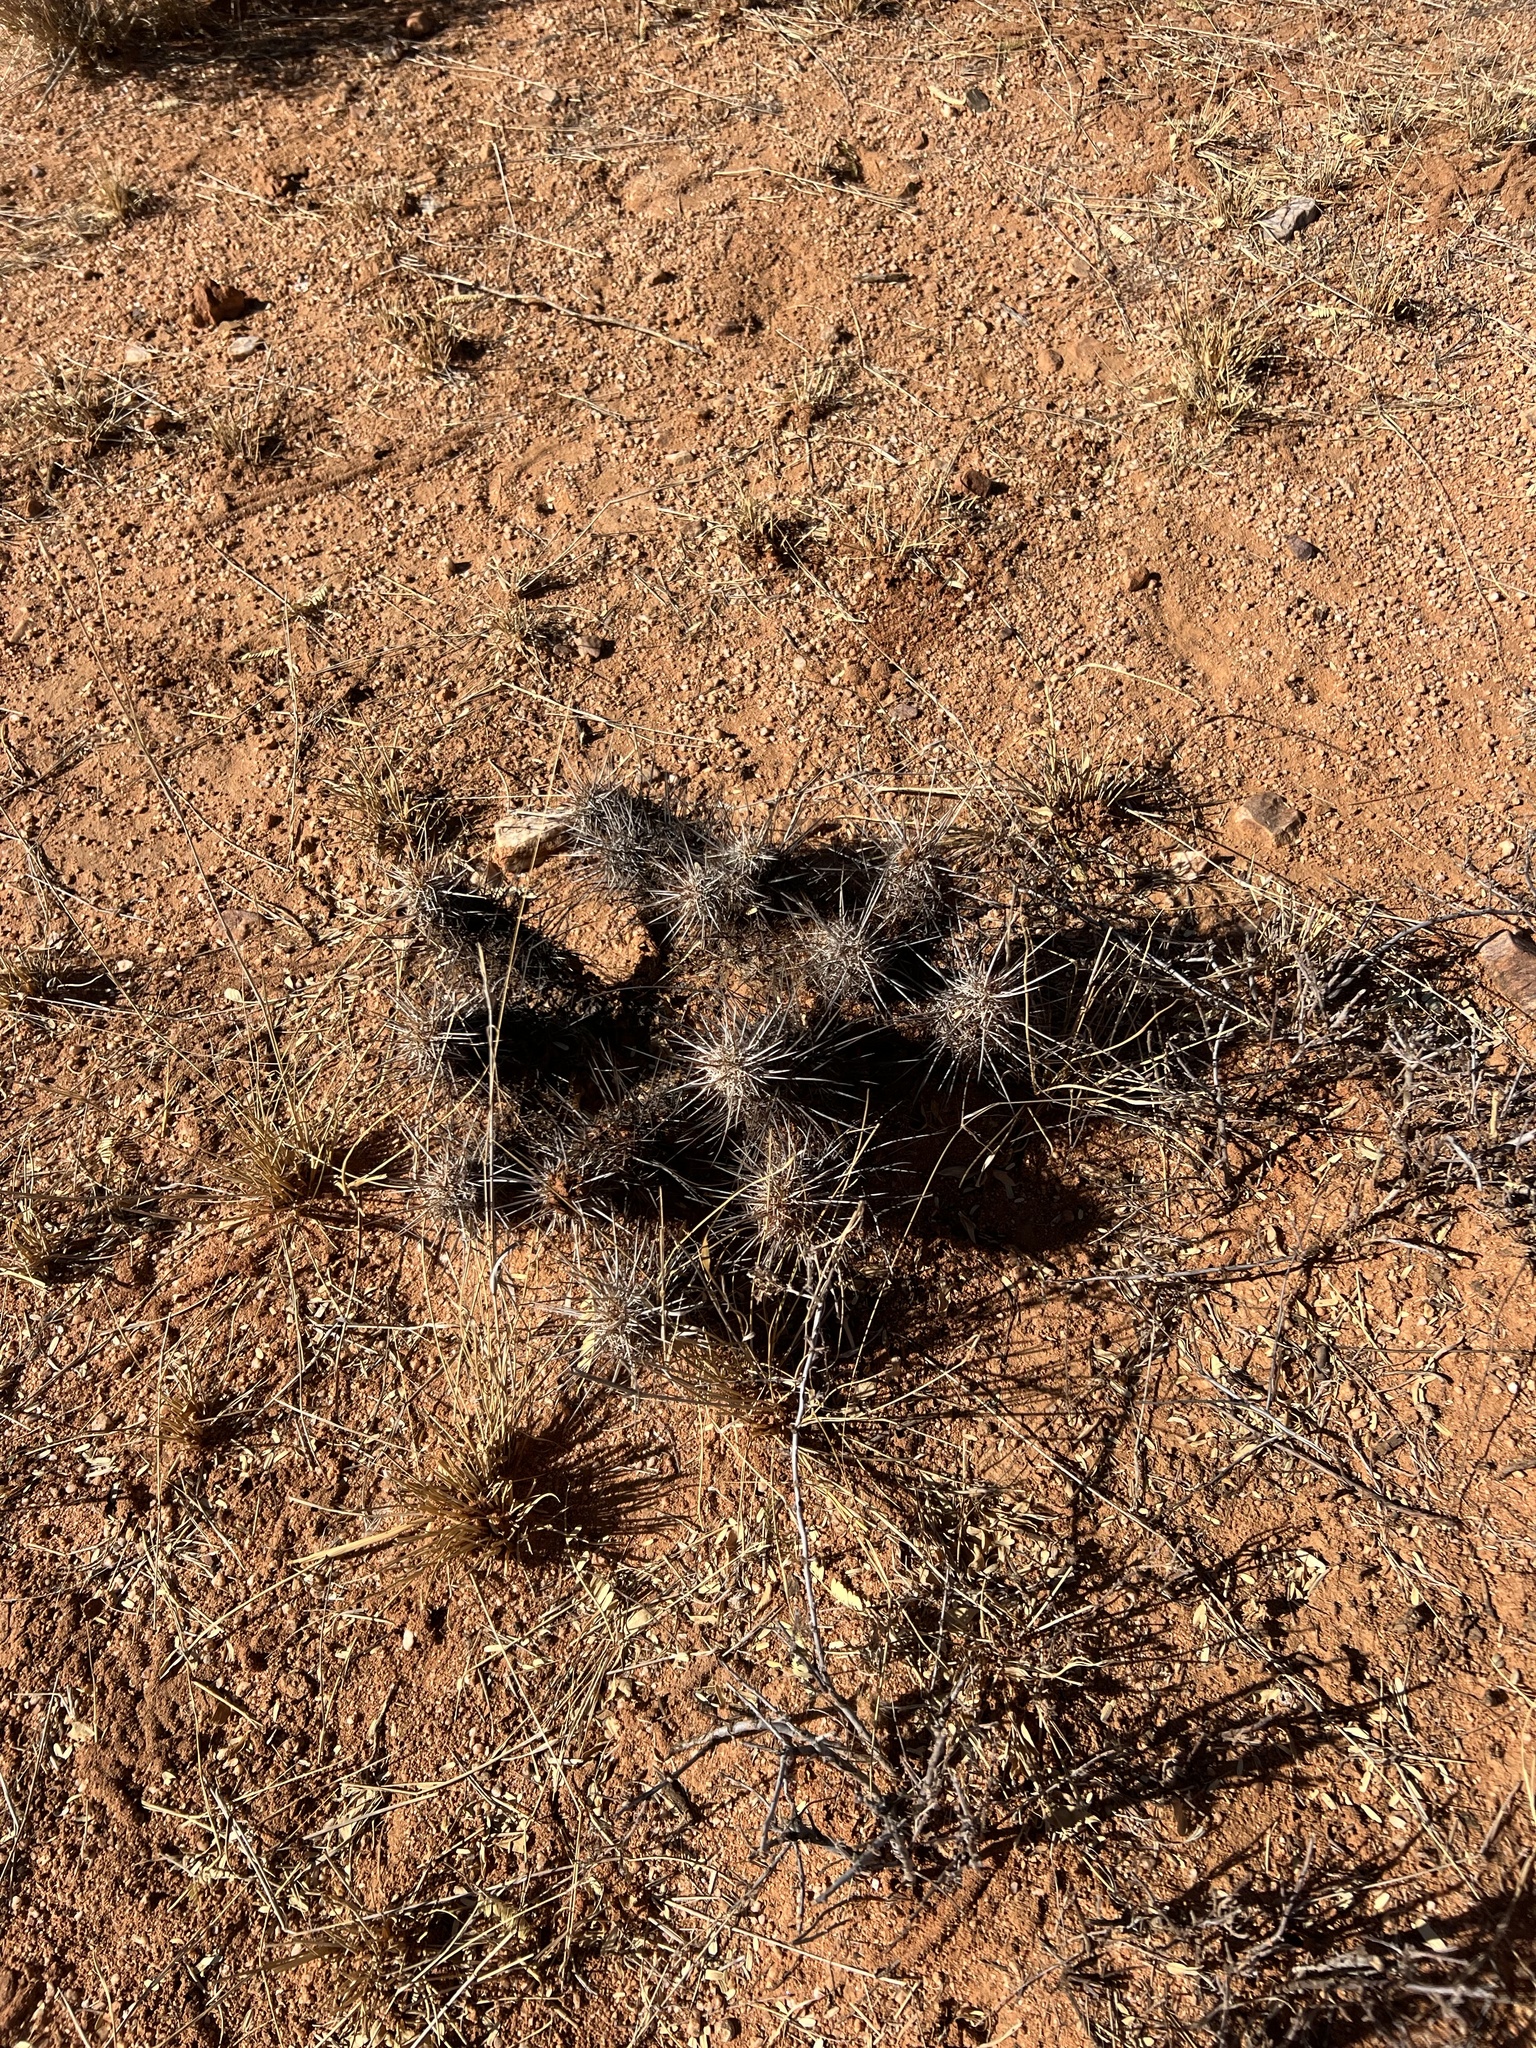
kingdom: Plantae
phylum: Tracheophyta
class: Magnoliopsida
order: Caryophyllales
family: Cactaceae
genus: Echinocereus
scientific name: Echinocereus fasciculatus
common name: Bundle hedgehog
